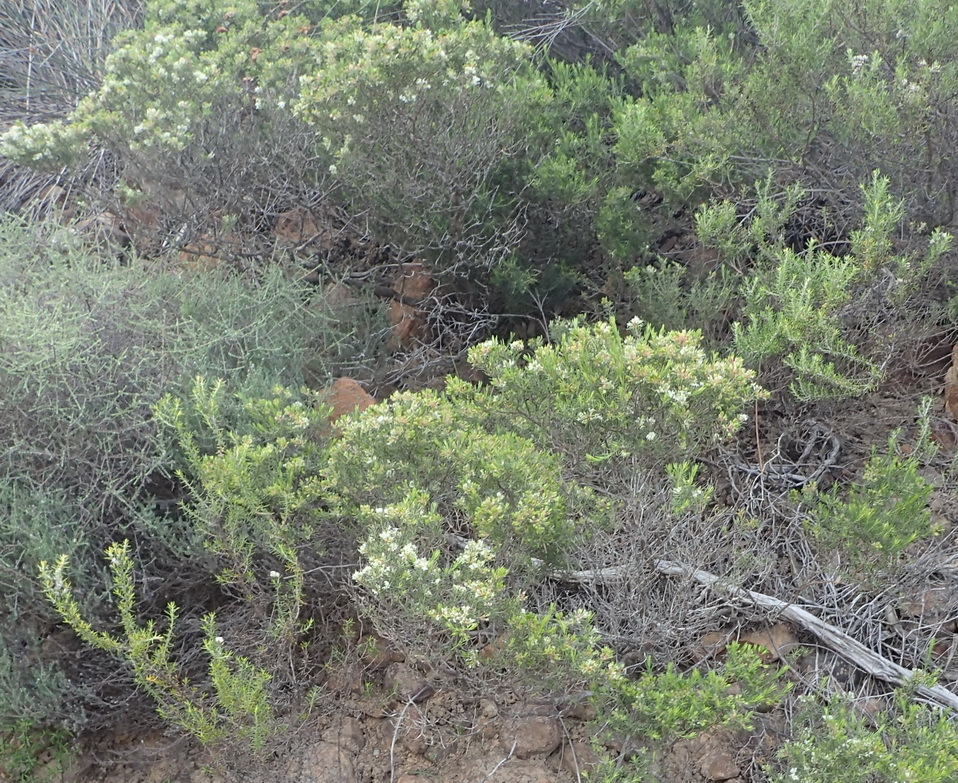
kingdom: Plantae
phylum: Tracheophyta
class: Magnoliopsida
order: Sapindales
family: Rutaceae
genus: Agathosma
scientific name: Agathosma bisulca
